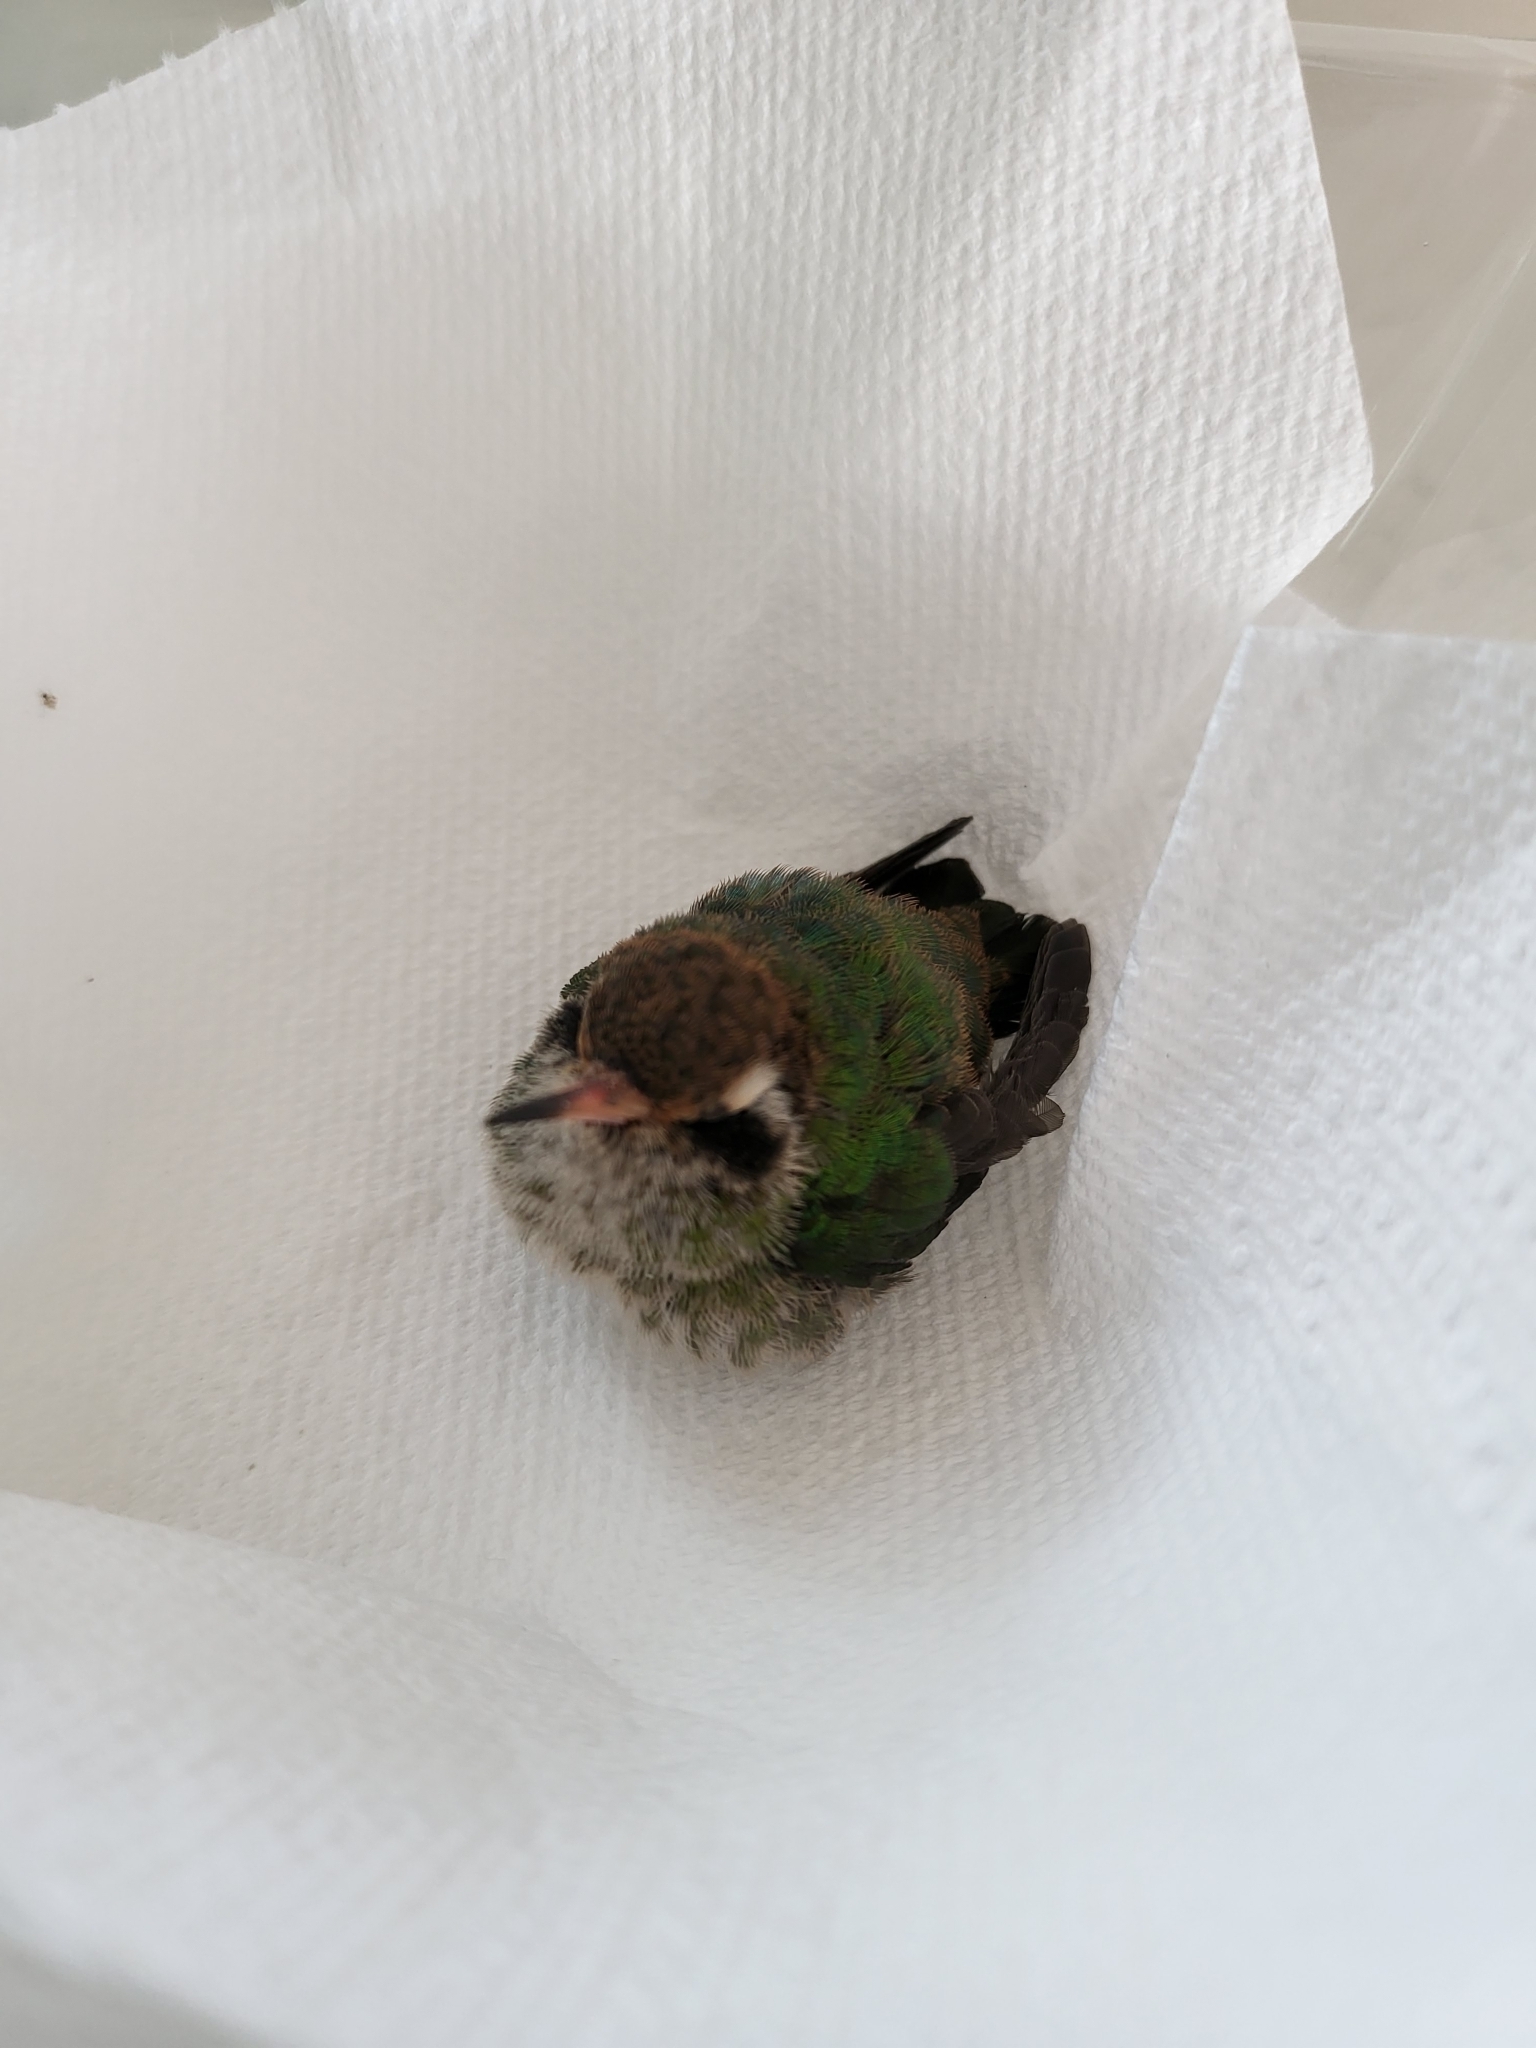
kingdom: Animalia
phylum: Chordata
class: Aves
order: Apodiformes
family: Trochilidae
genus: Basilinna
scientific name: Basilinna leucotis
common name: White-eared hummingbird
